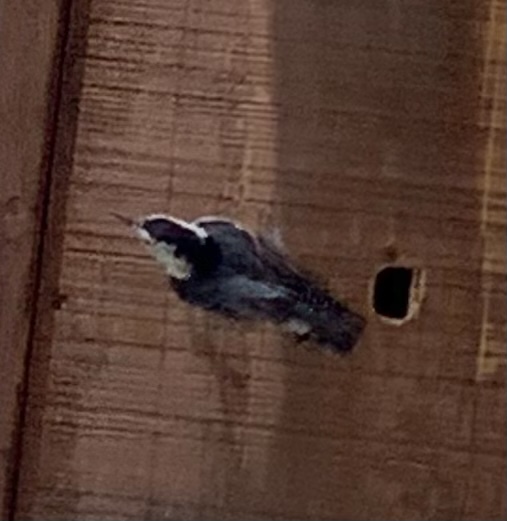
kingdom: Animalia
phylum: Chordata
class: Aves
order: Passeriformes
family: Sittidae
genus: Sitta
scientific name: Sitta carolinensis
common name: White-breasted nuthatch
